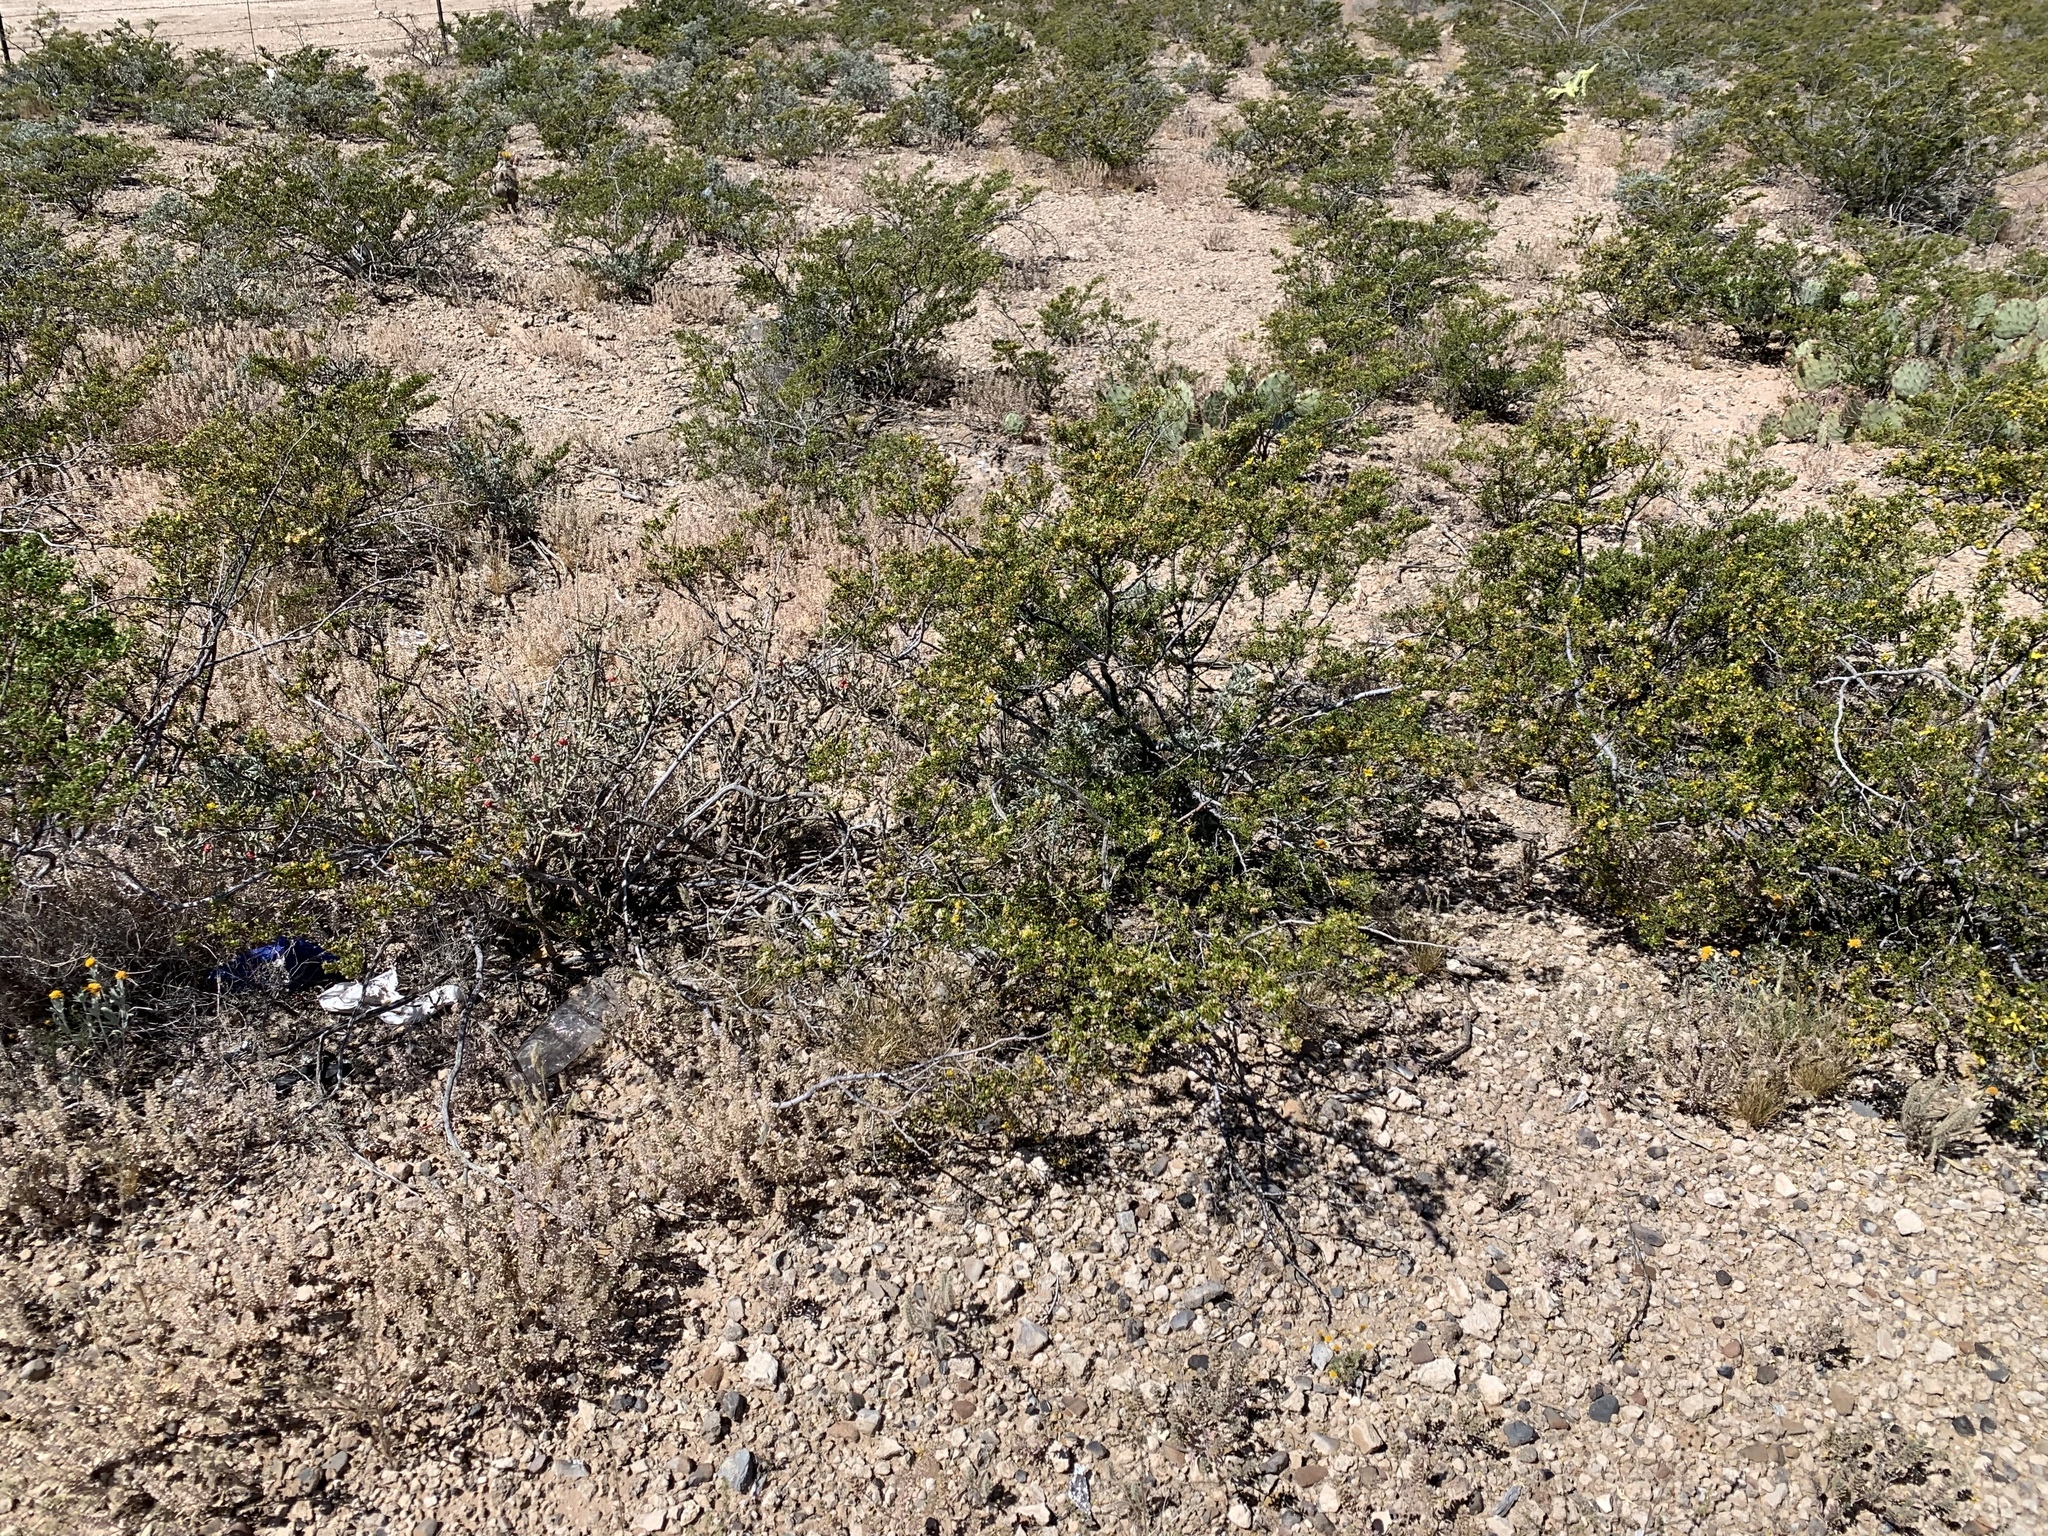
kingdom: Plantae
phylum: Tracheophyta
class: Magnoliopsida
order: Zygophyllales
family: Zygophyllaceae
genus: Larrea
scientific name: Larrea tridentata
